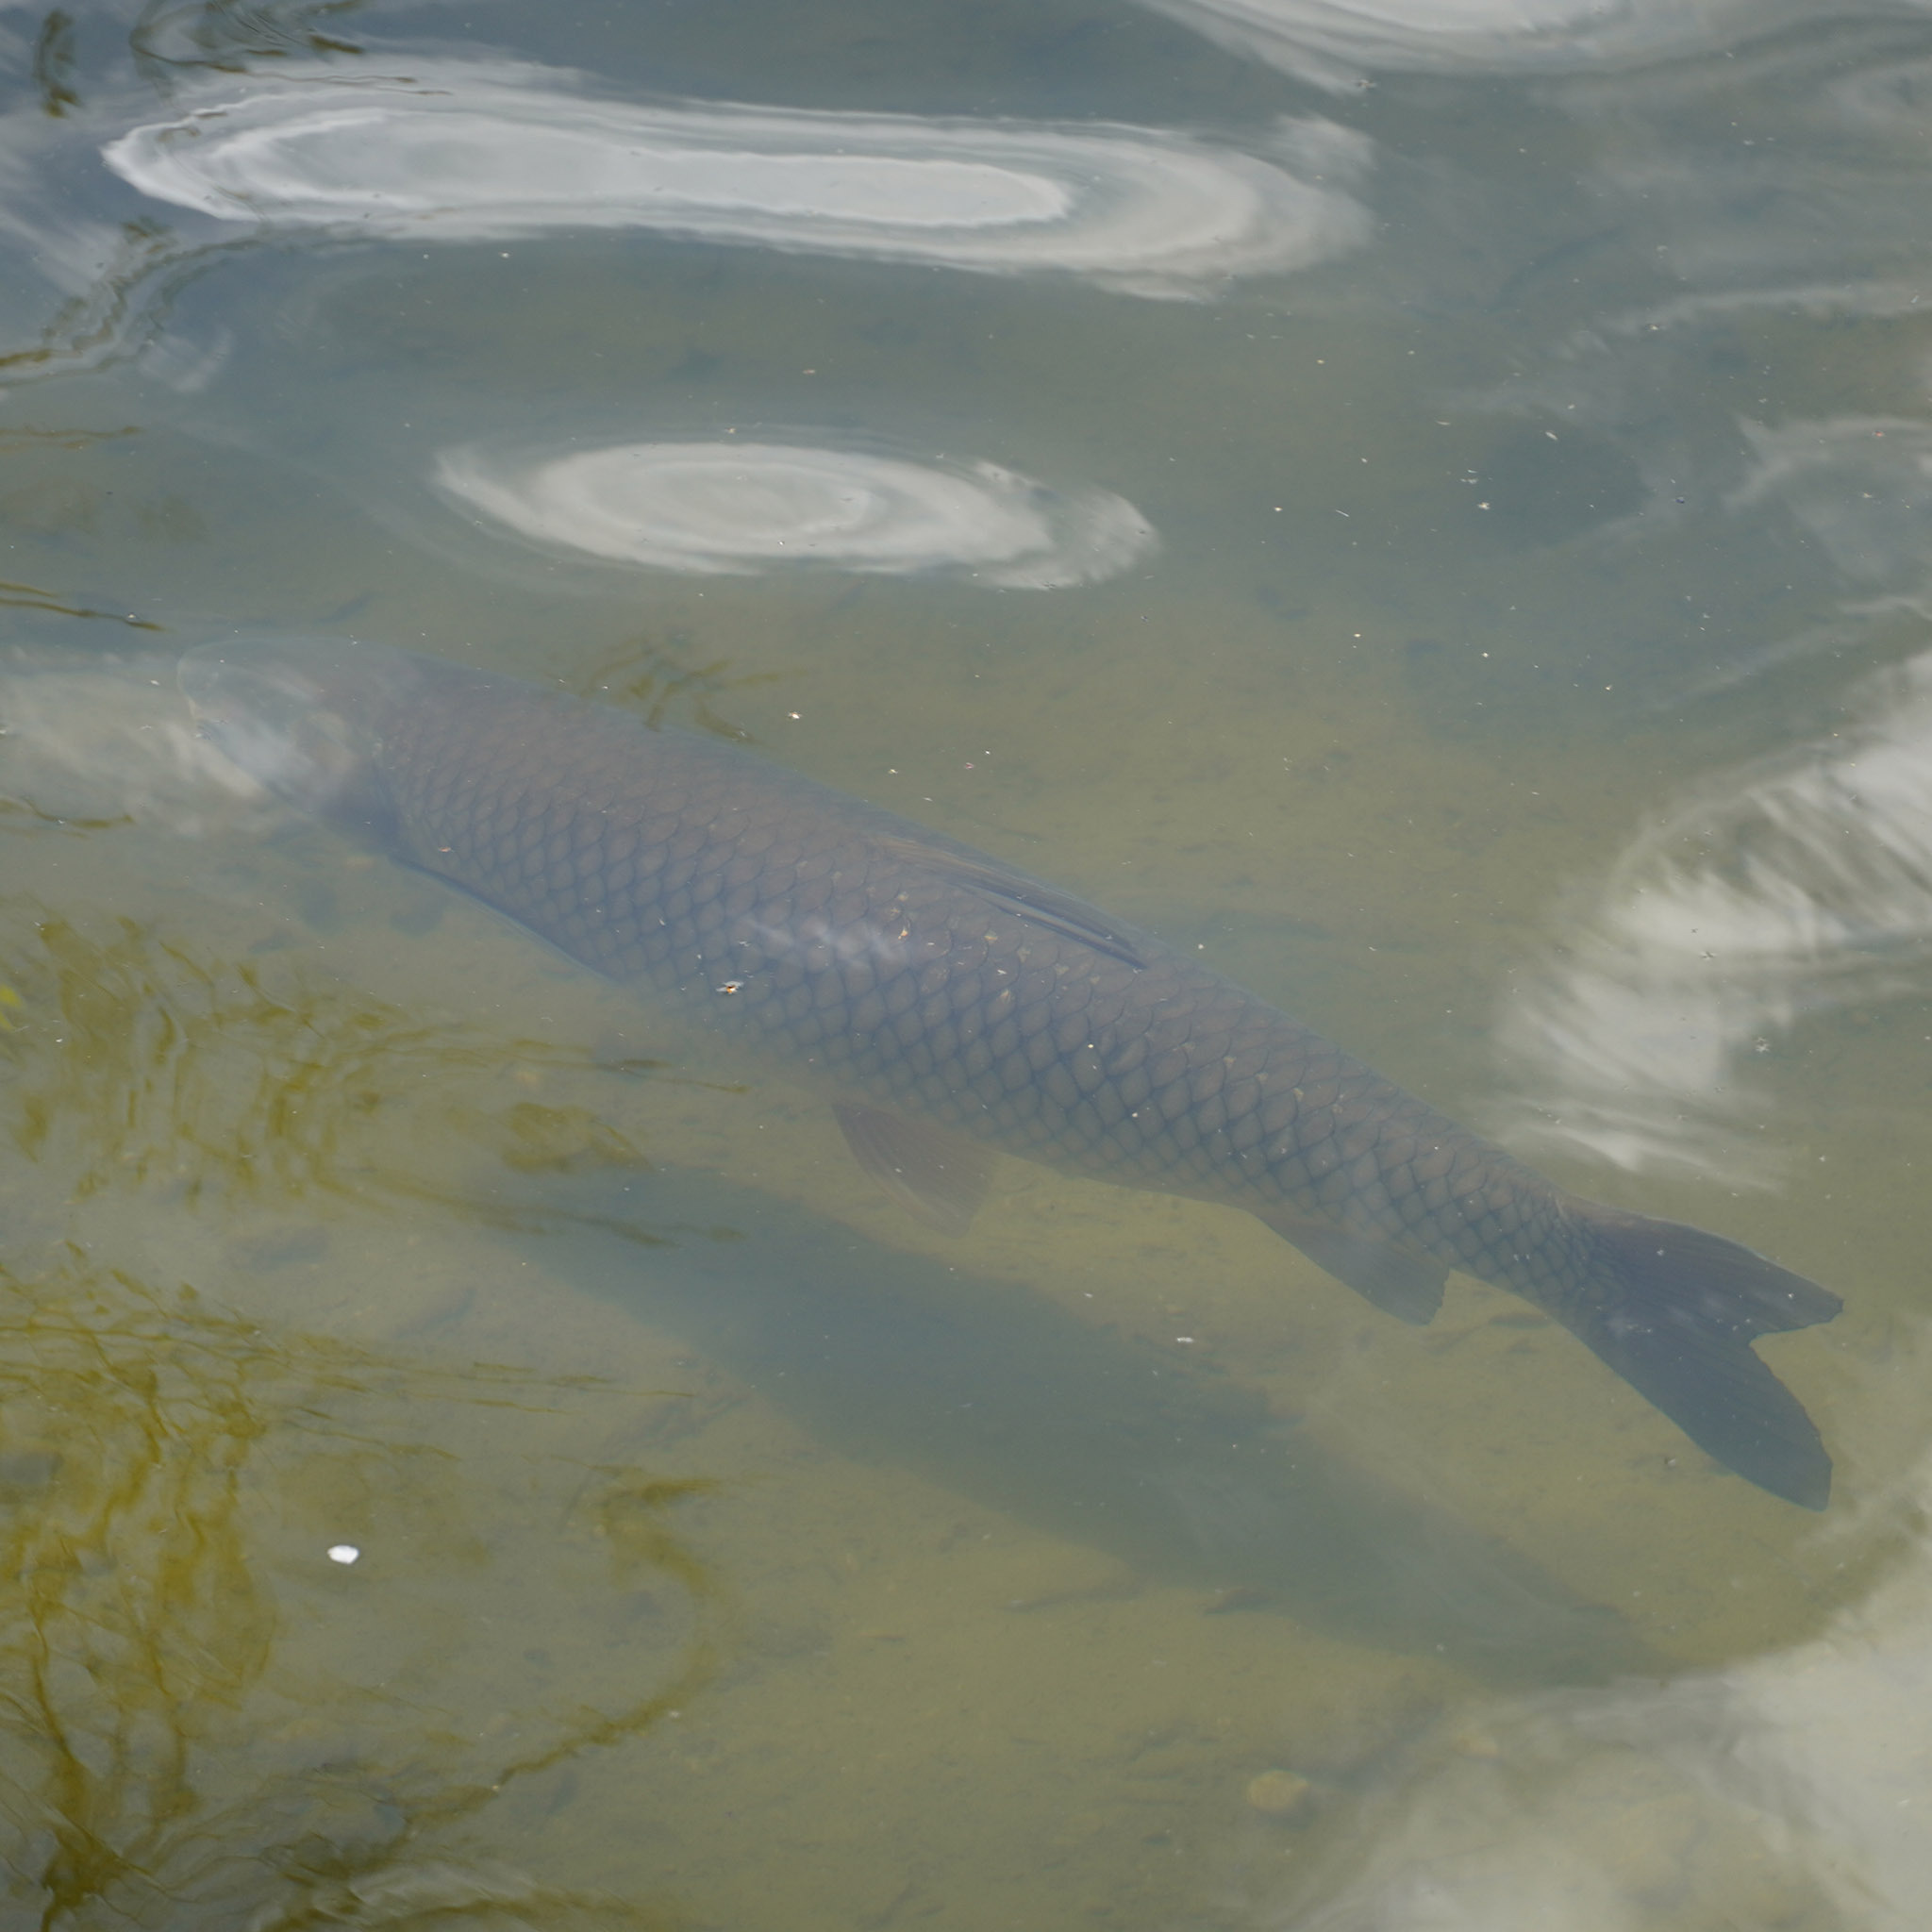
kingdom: Animalia
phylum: Chordata
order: Cypriniformes
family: Cyprinidae
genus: Ctenopharyngodon
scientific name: Ctenopharyngodon idella
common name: Grass carp
